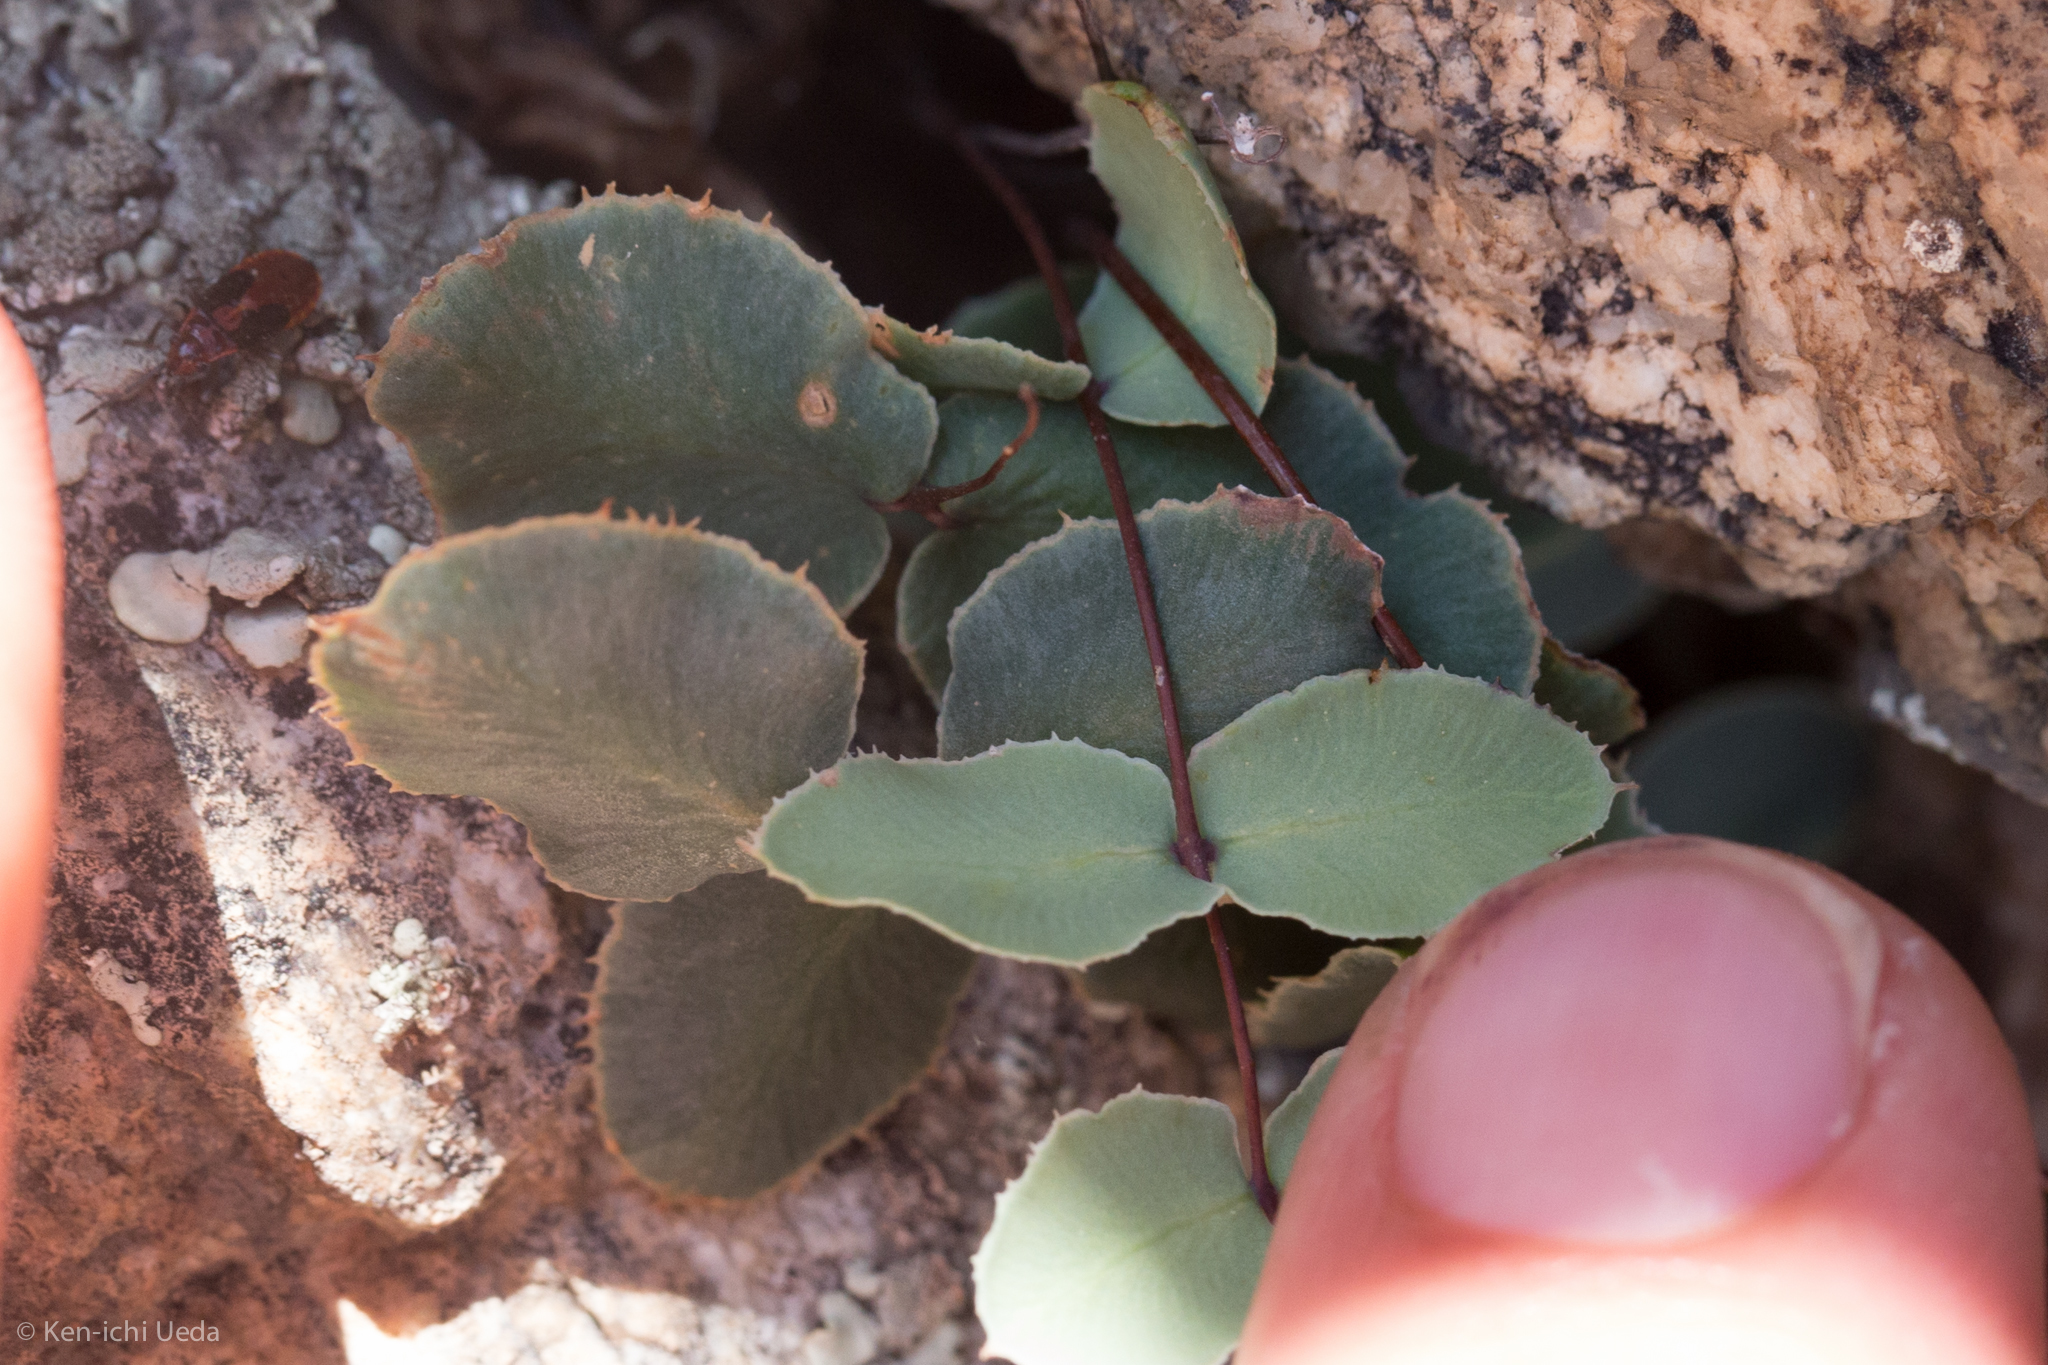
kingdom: Plantae
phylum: Tracheophyta
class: Polypodiopsida
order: Polypodiales
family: Pteridaceae
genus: Pellaea
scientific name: Pellaea truncata
